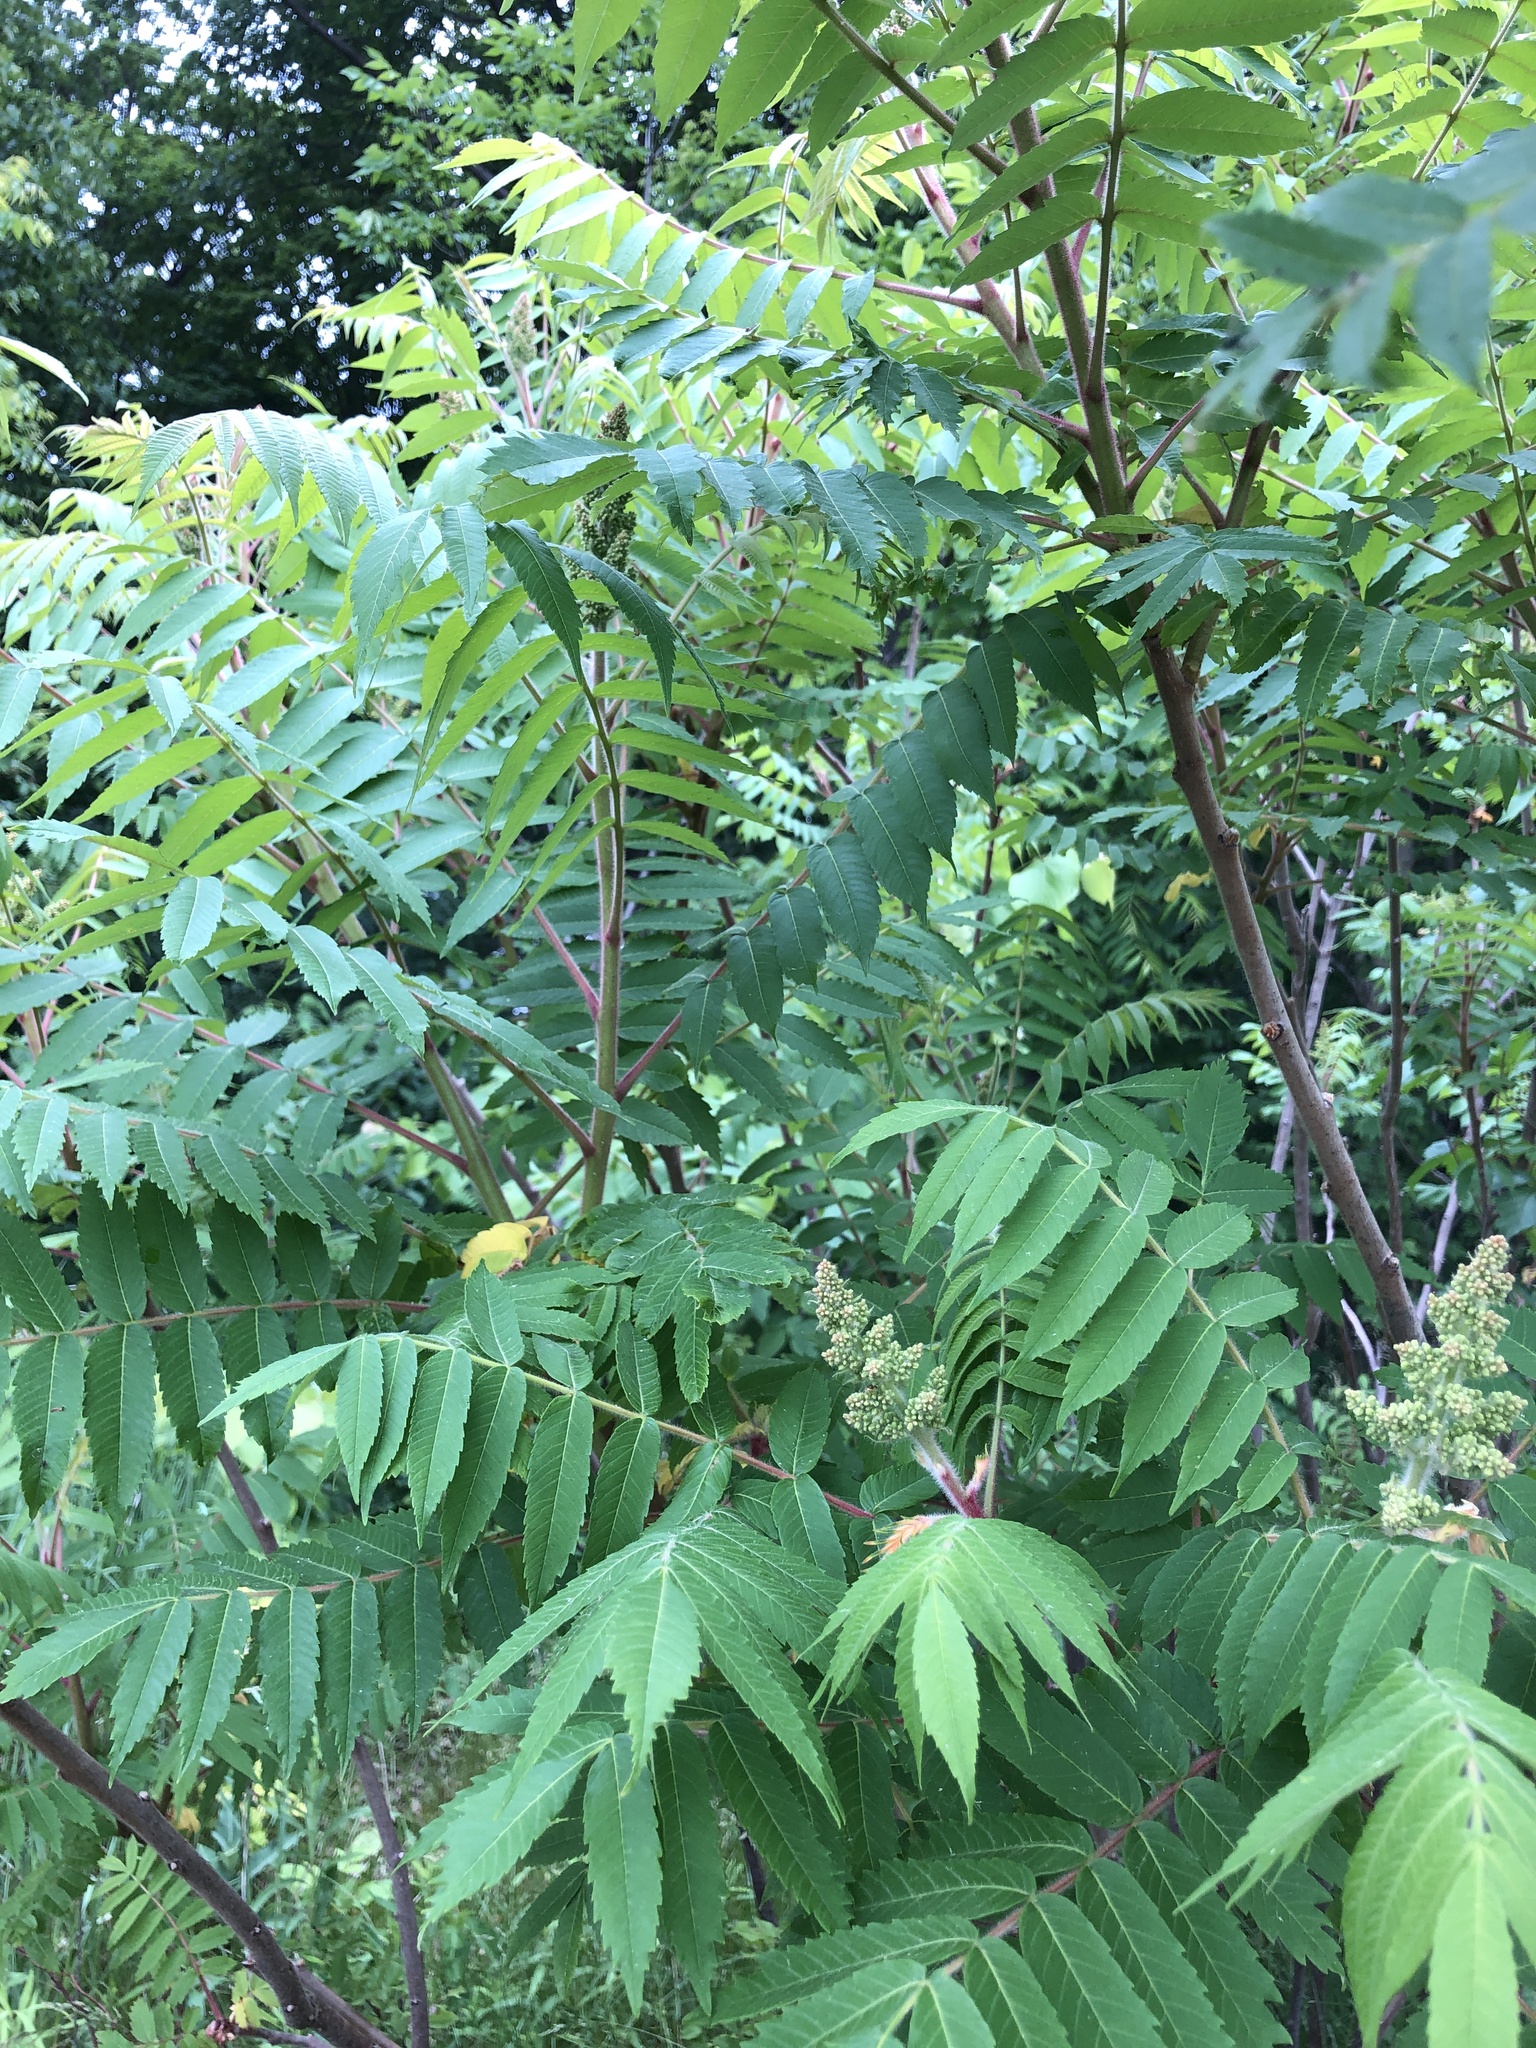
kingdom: Plantae
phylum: Tracheophyta
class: Magnoliopsida
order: Sapindales
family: Anacardiaceae
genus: Rhus
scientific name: Rhus typhina
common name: Staghorn sumac
